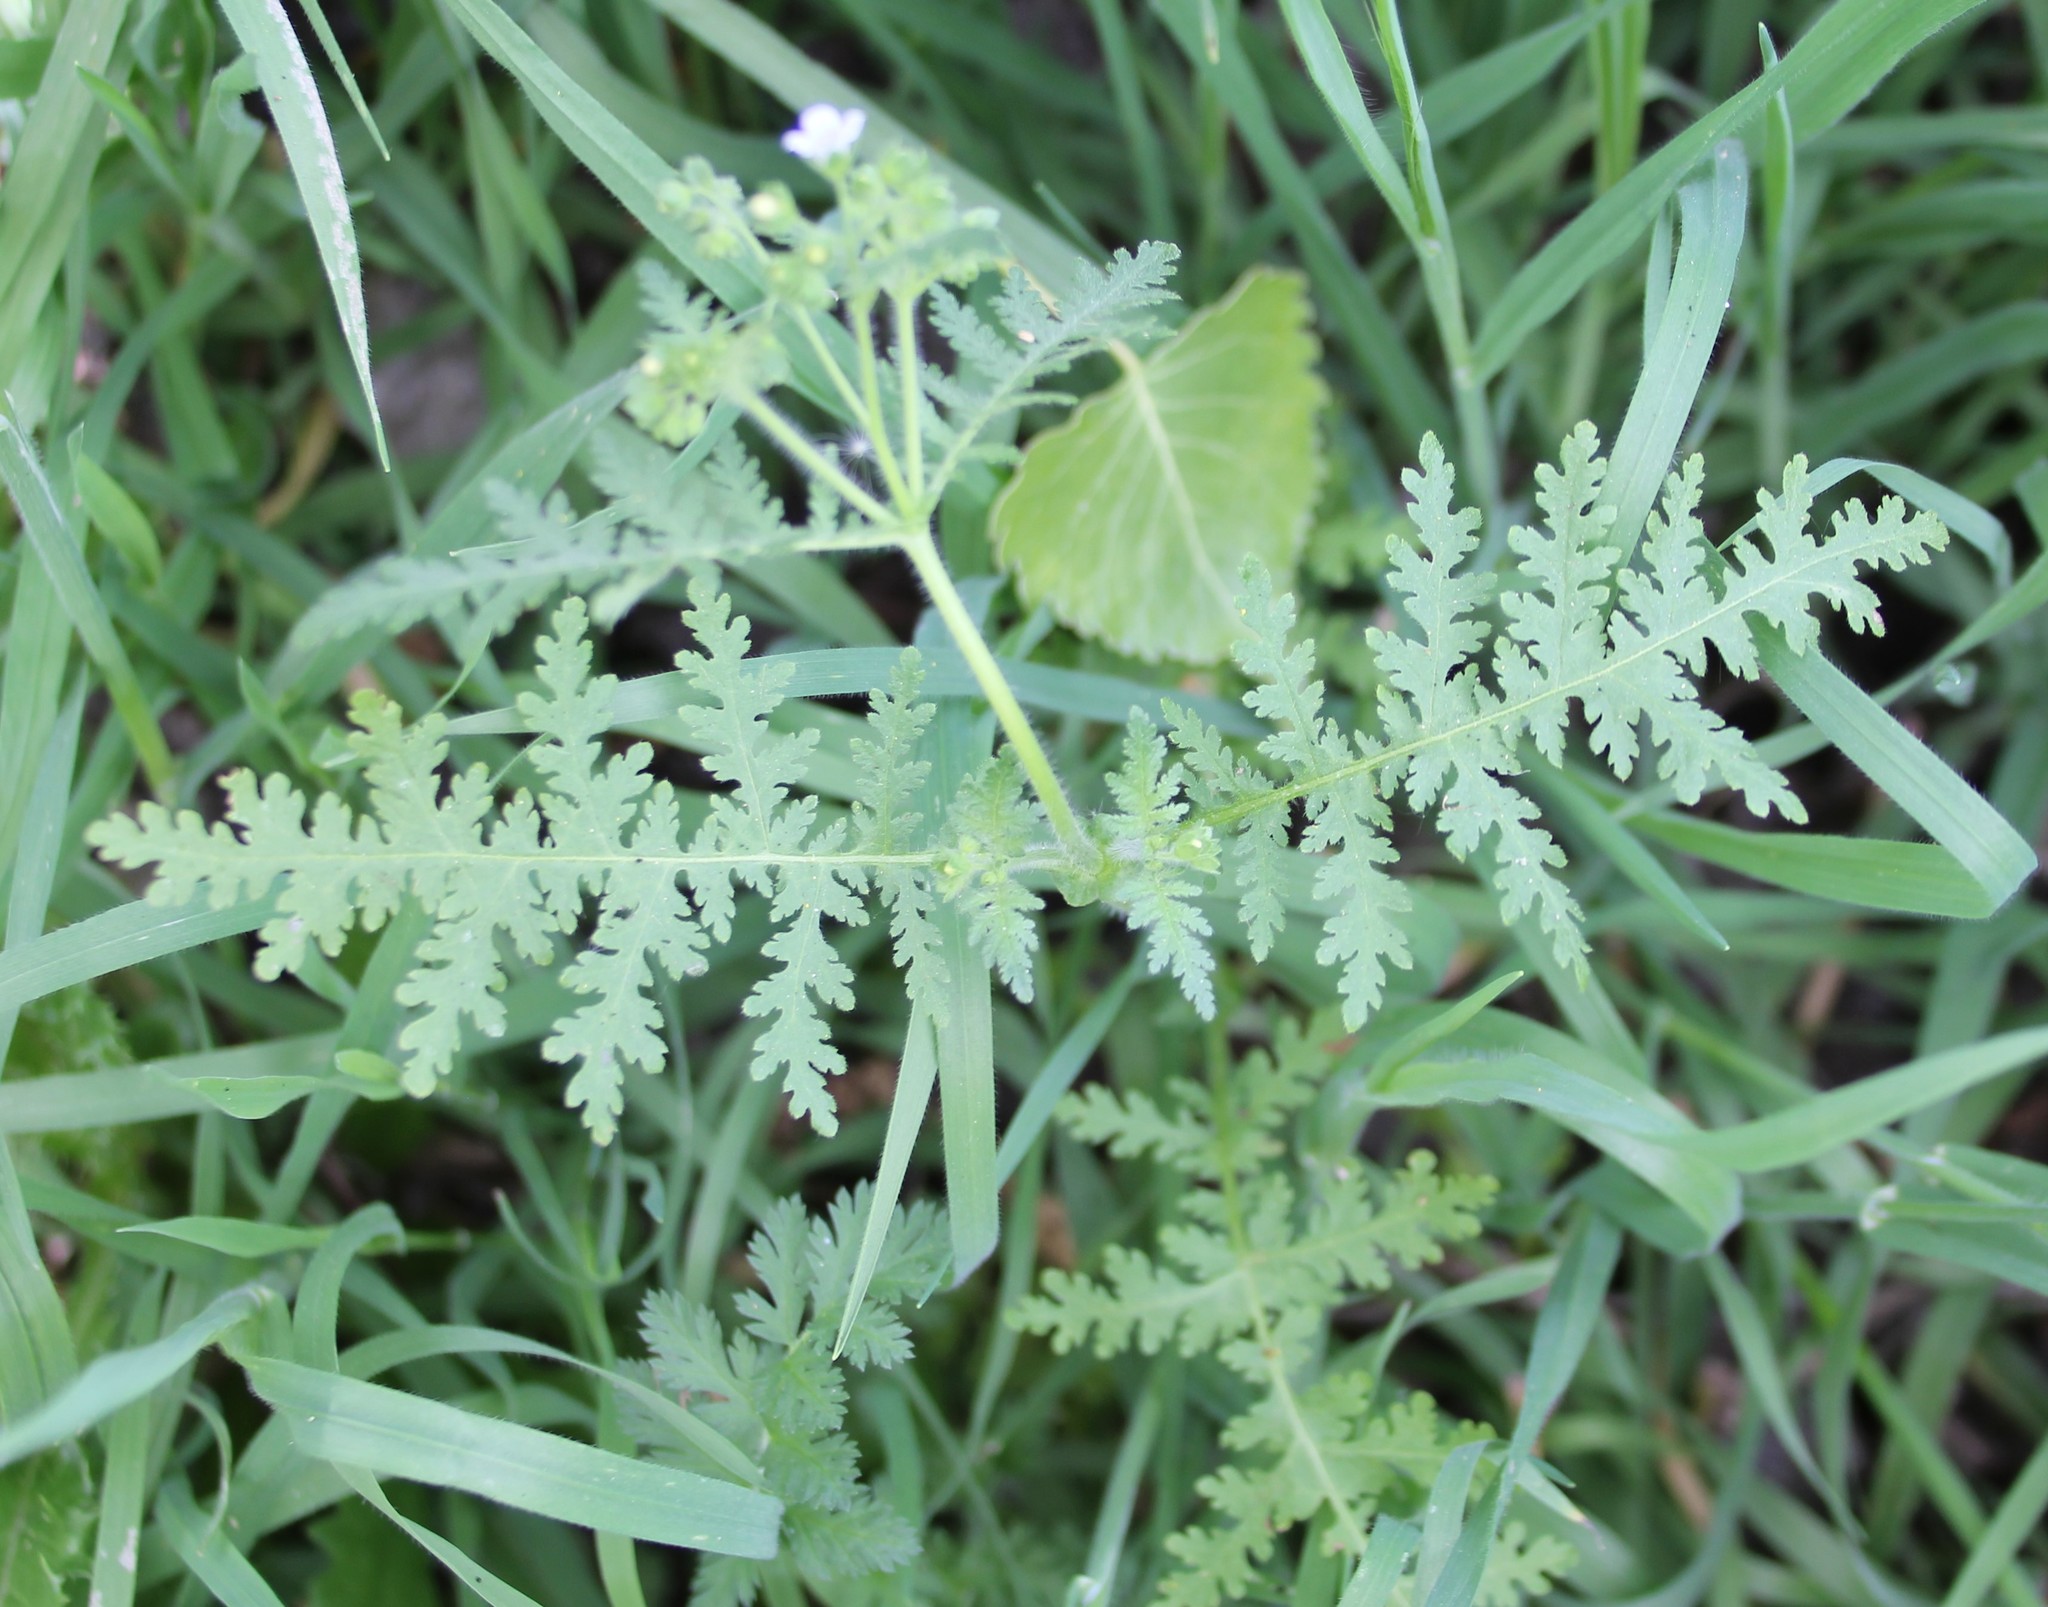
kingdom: Plantae
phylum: Tracheophyta
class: Magnoliopsida
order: Boraginales
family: Hydrophyllaceae
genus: Eucrypta
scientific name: Eucrypta chrysanthemifolia
